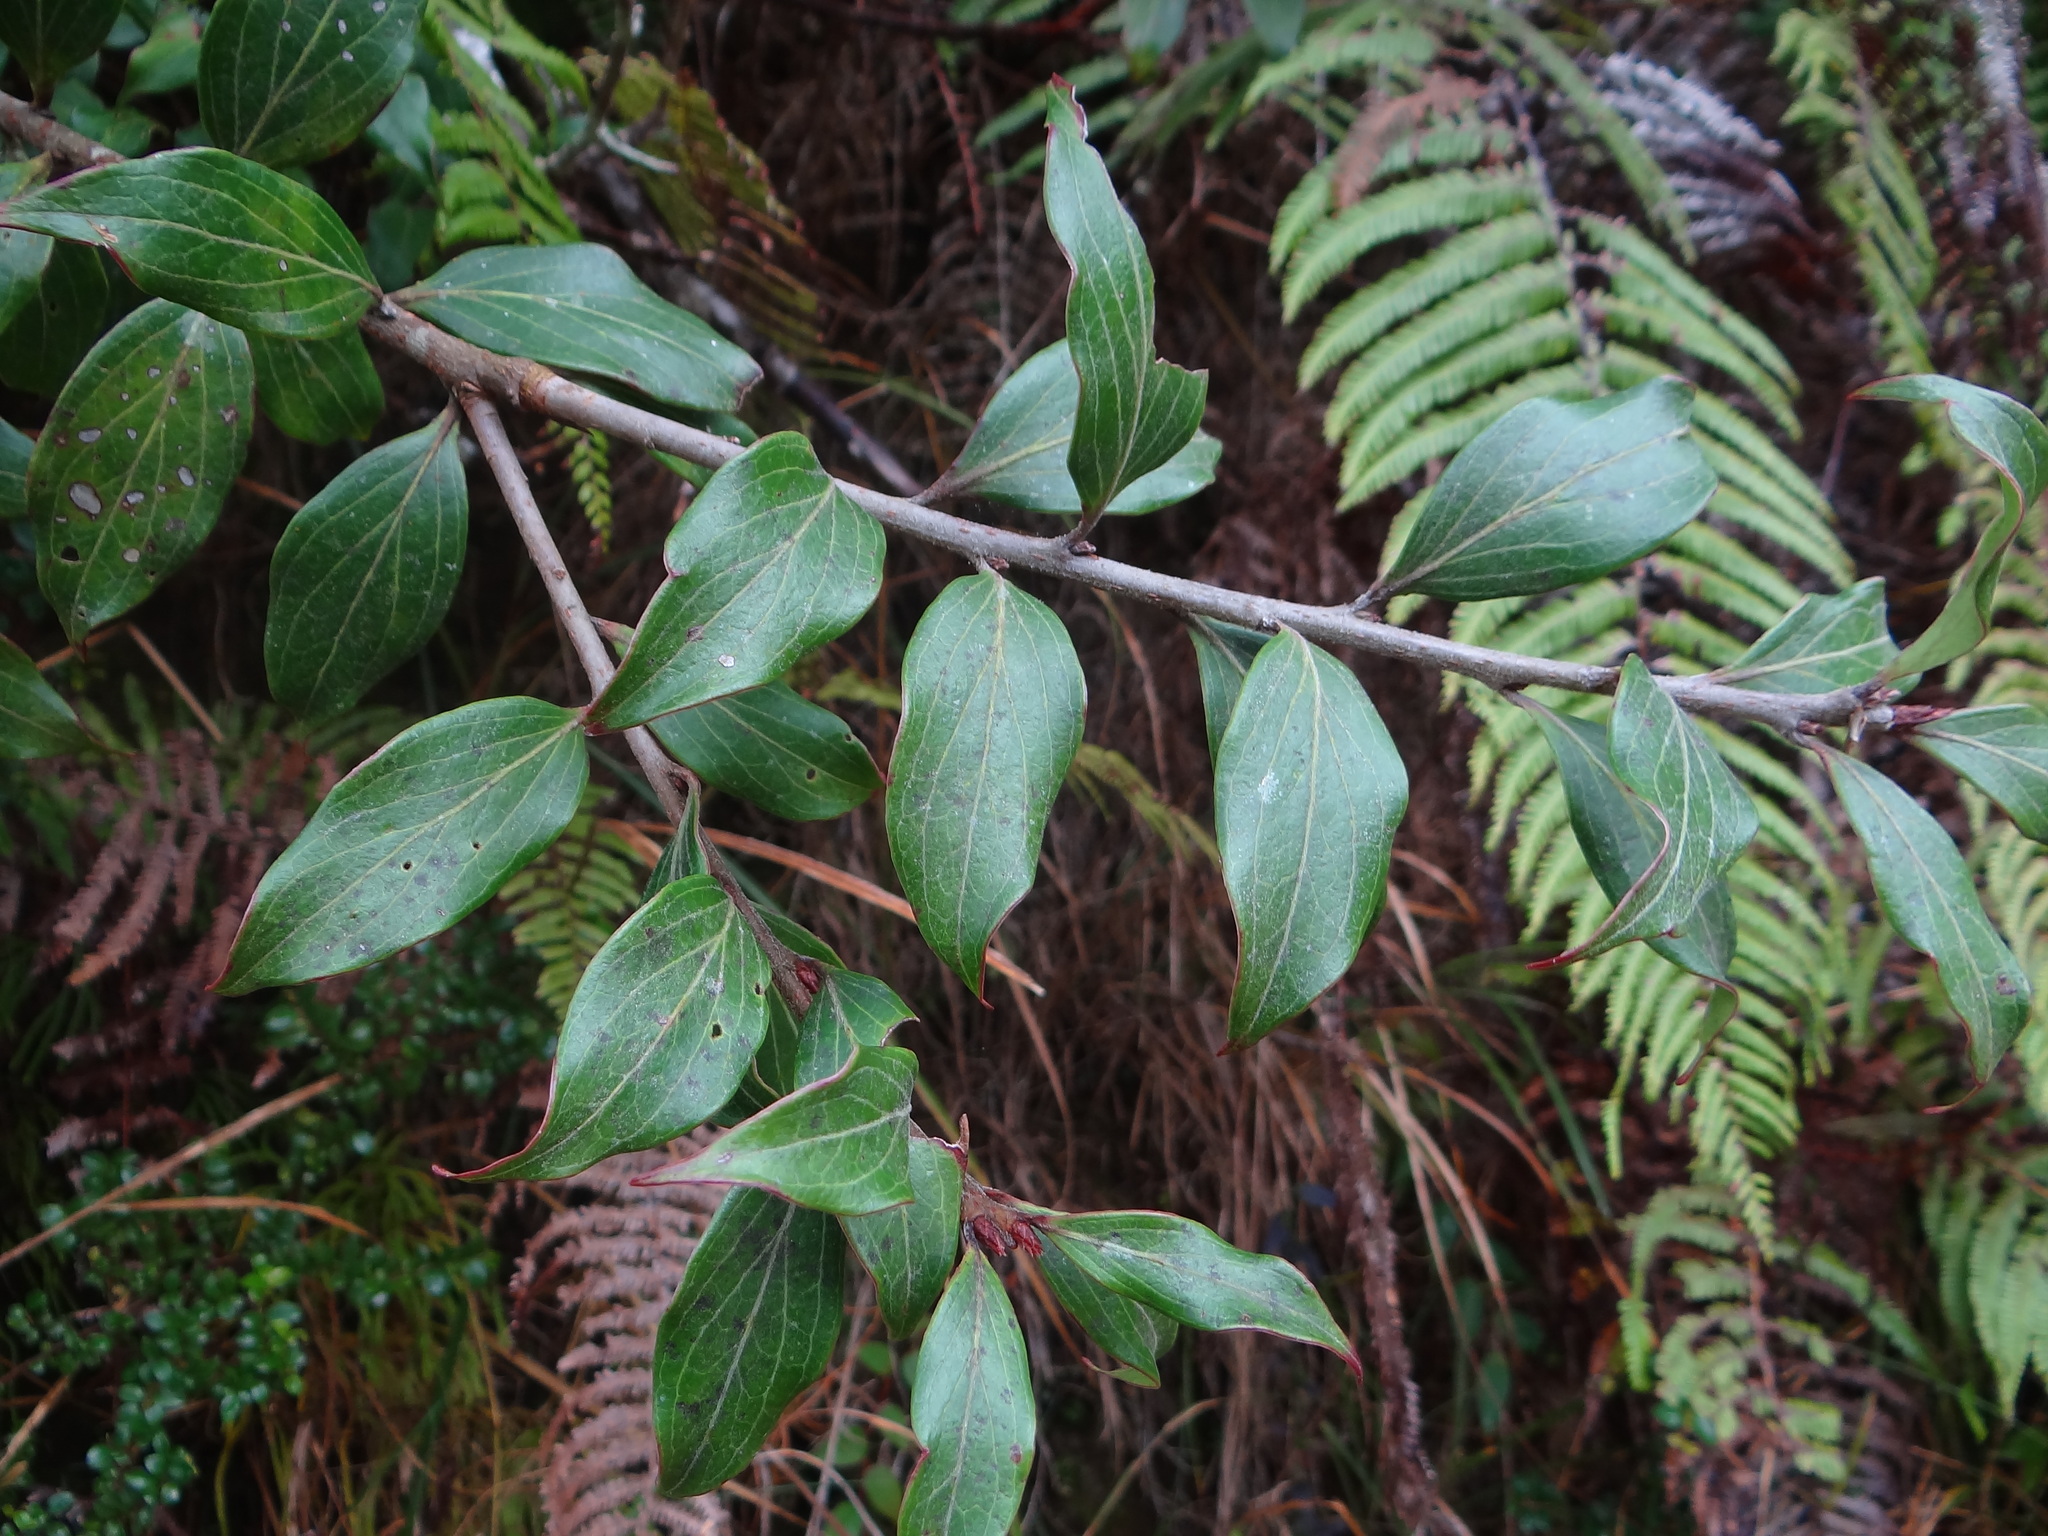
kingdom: Plantae
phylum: Tracheophyta
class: Magnoliopsida
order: Ericales
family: Ericaceae
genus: Vaccinium
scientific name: Vaccinium dunalianum
